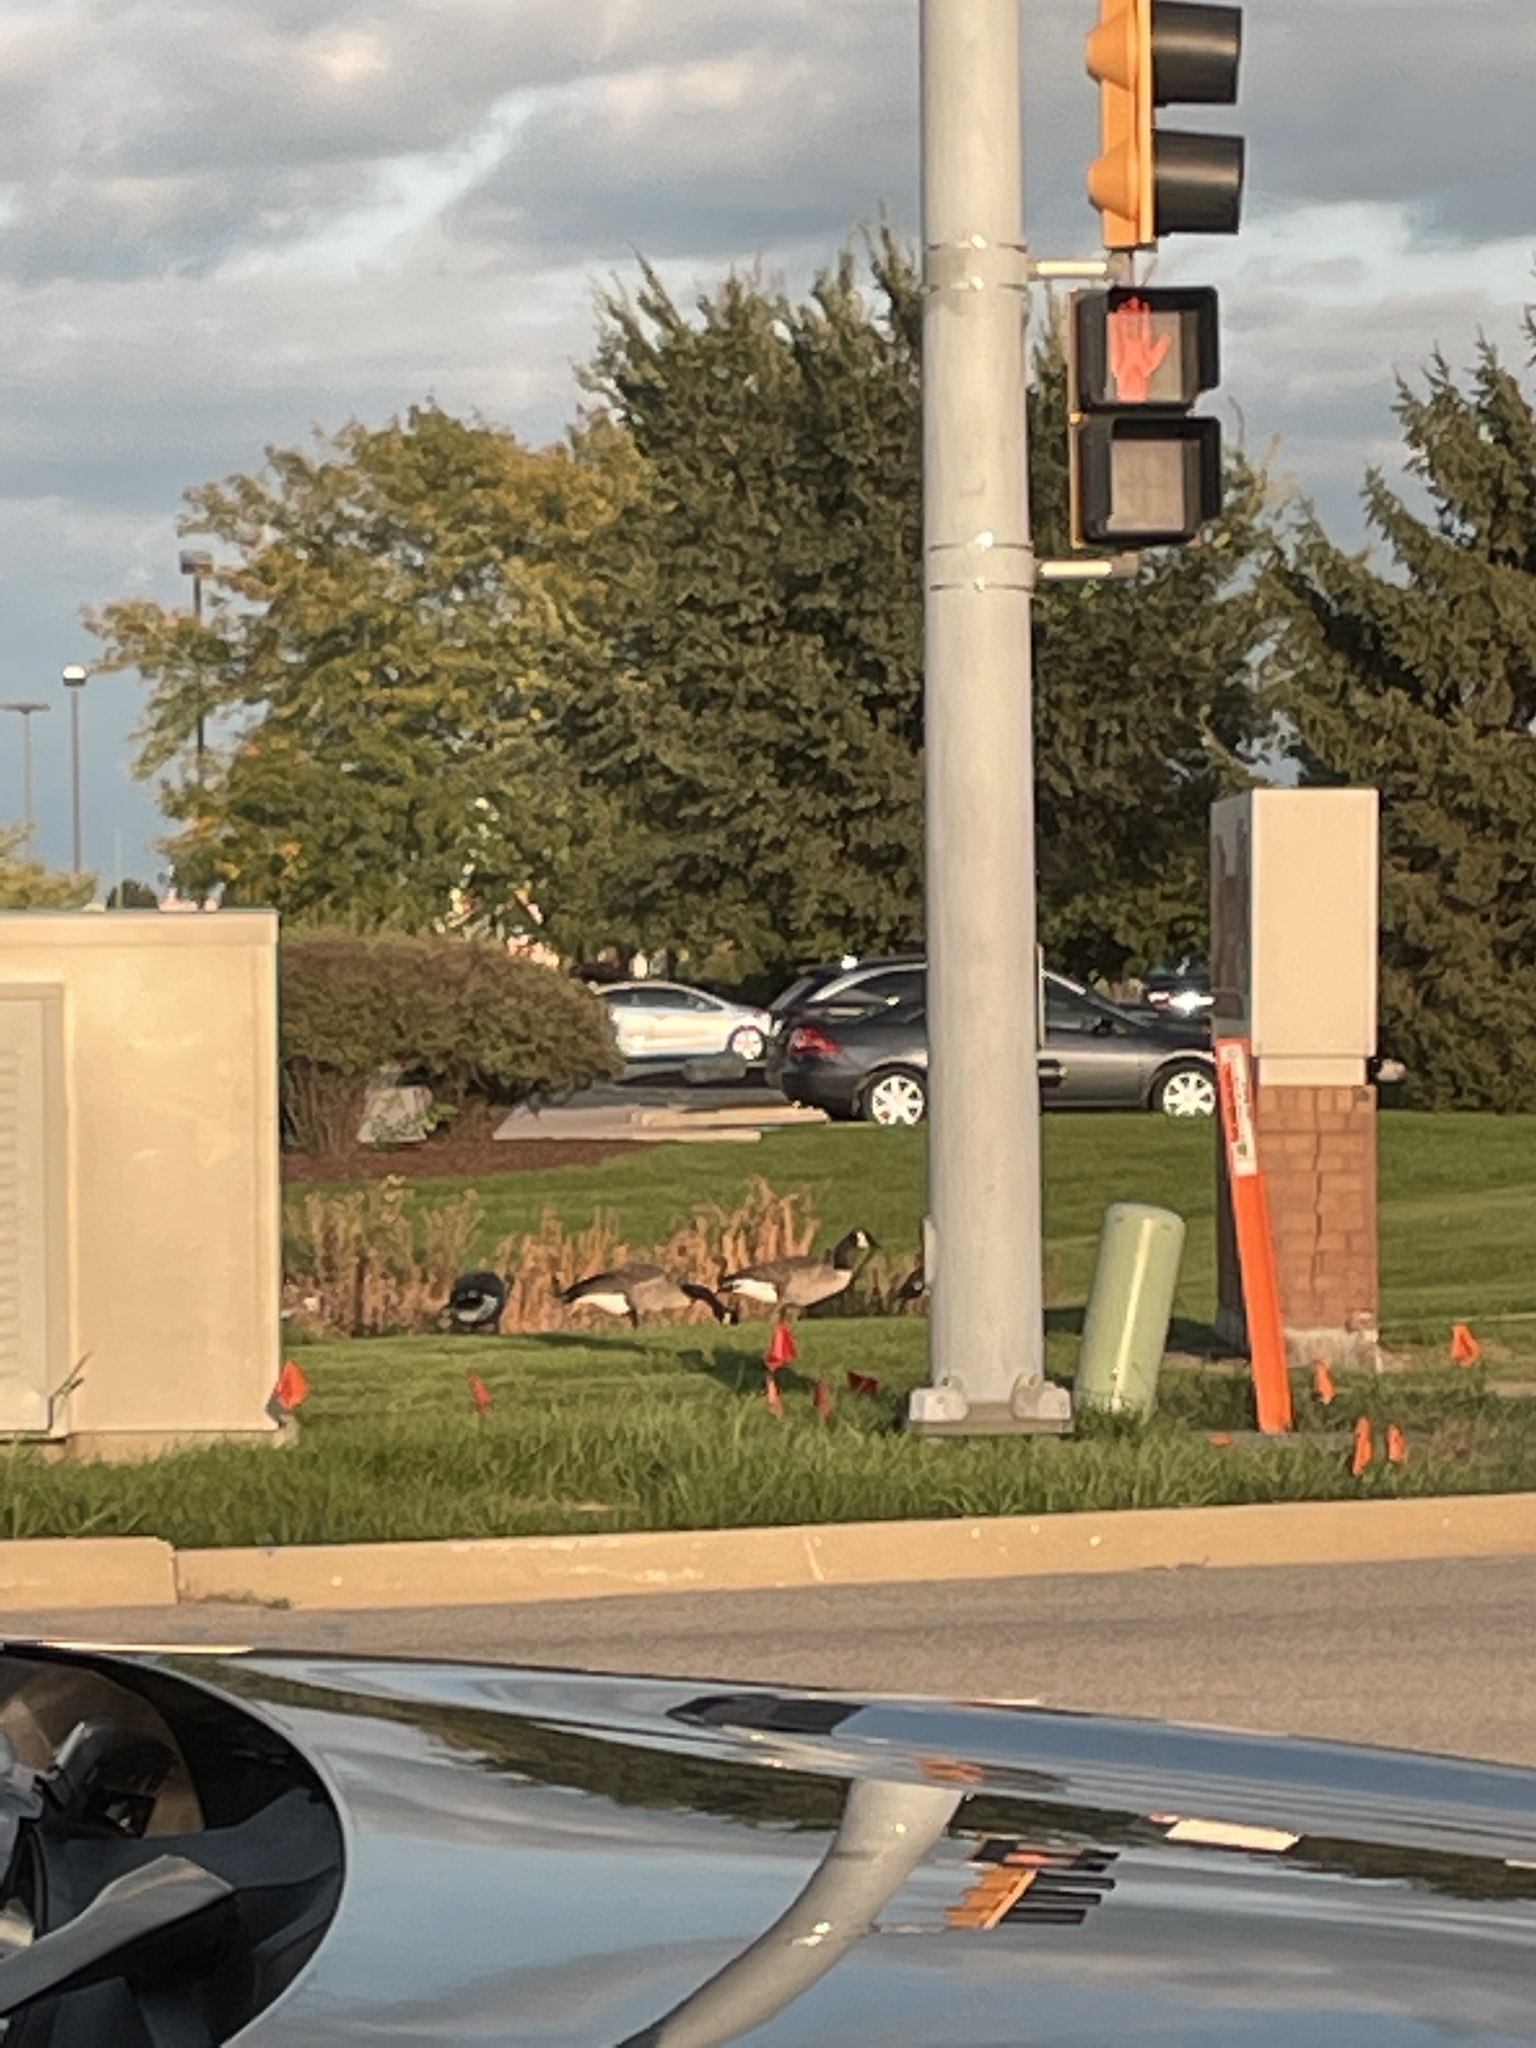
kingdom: Animalia
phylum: Chordata
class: Aves
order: Anseriformes
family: Anatidae
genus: Branta
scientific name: Branta canadensis
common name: Canada goose
